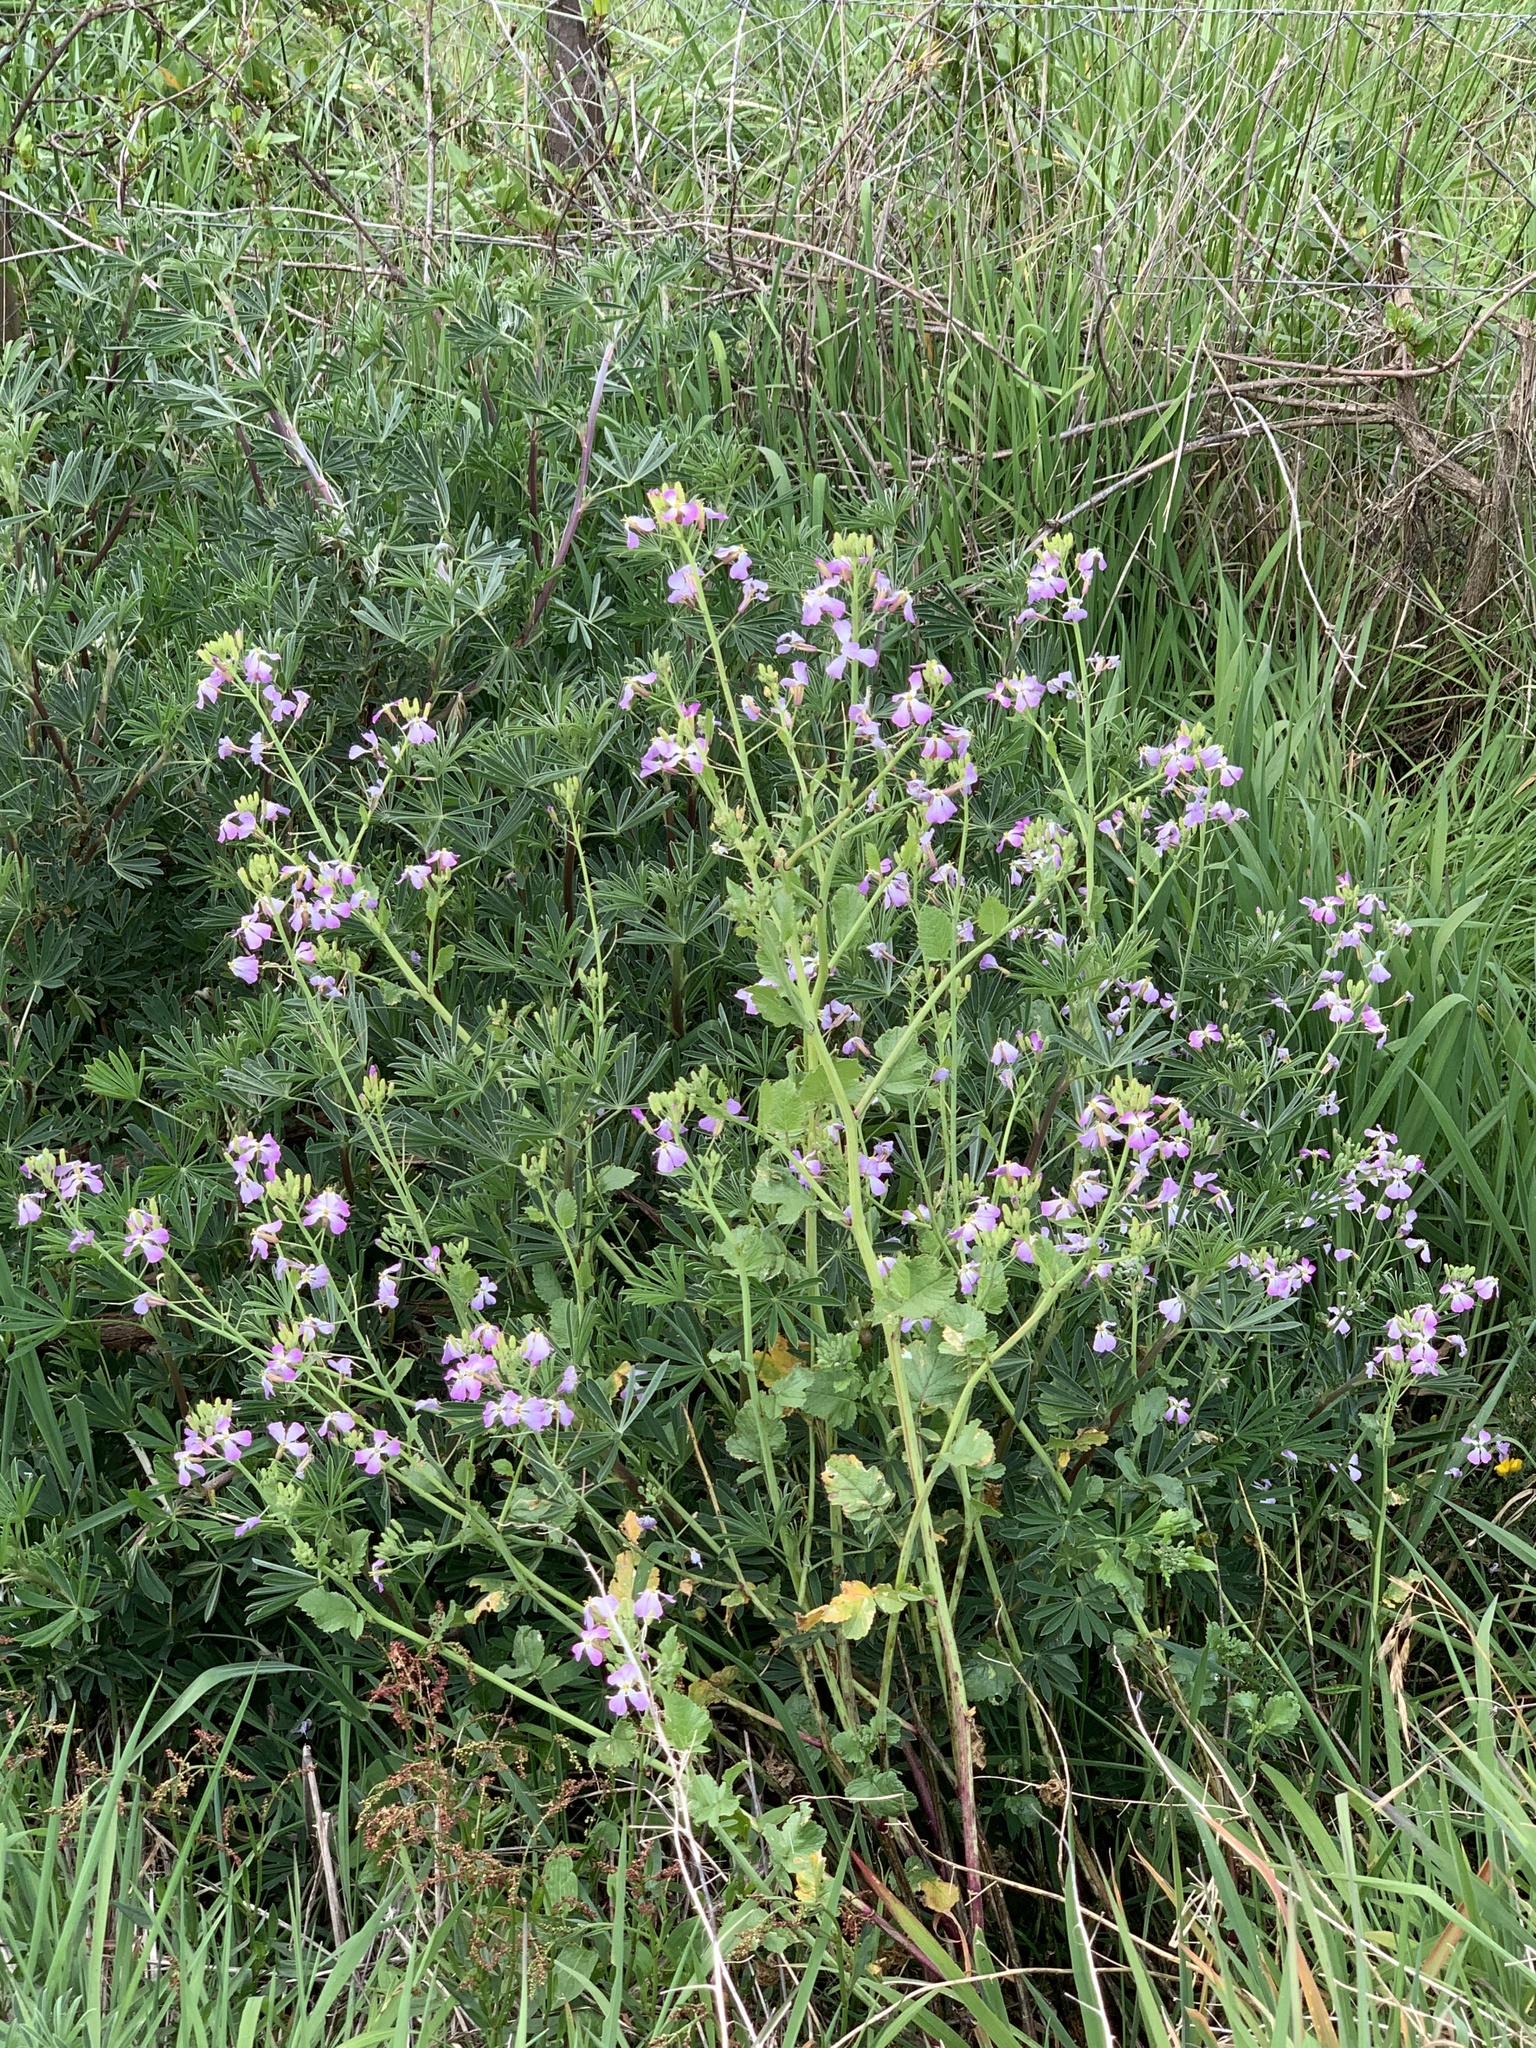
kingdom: Plantae
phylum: Tracheophyta
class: Magnoliopsida
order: Brassicales
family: Brassicaceae
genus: Raphanus
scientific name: Raphanus sativus
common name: Cultivated radish
